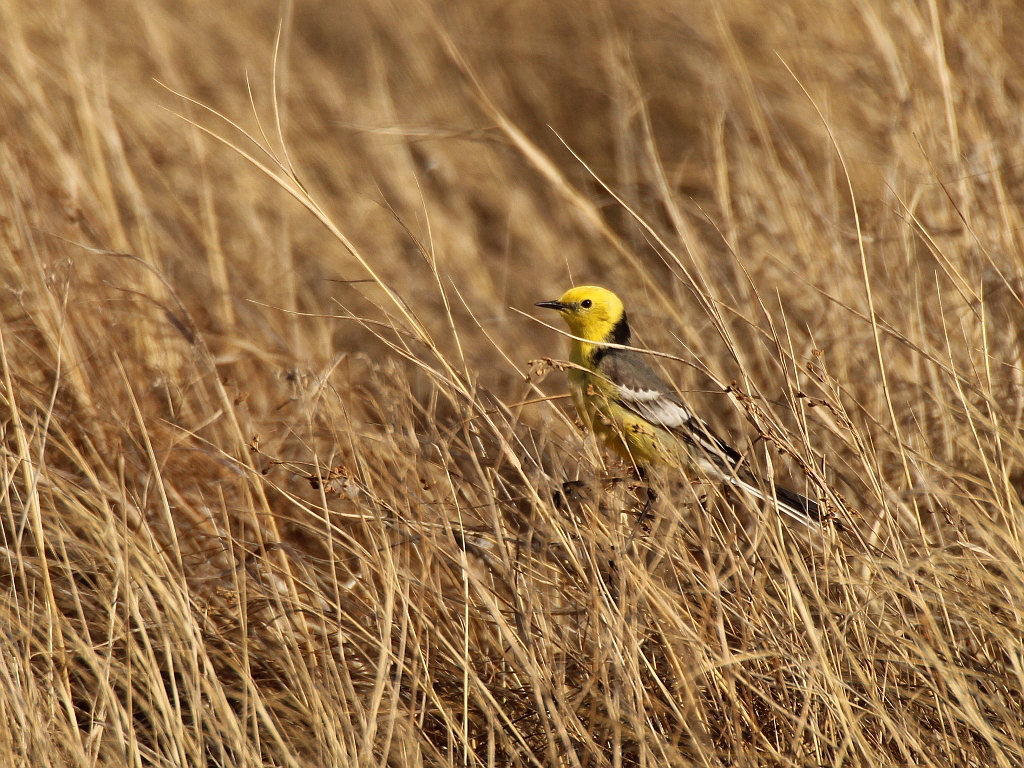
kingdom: Animalia
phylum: Chordata
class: Aves
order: Passeriformes
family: Motacillidae
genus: Motacilla
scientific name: Motacilla citreola
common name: Citrine wagtail
